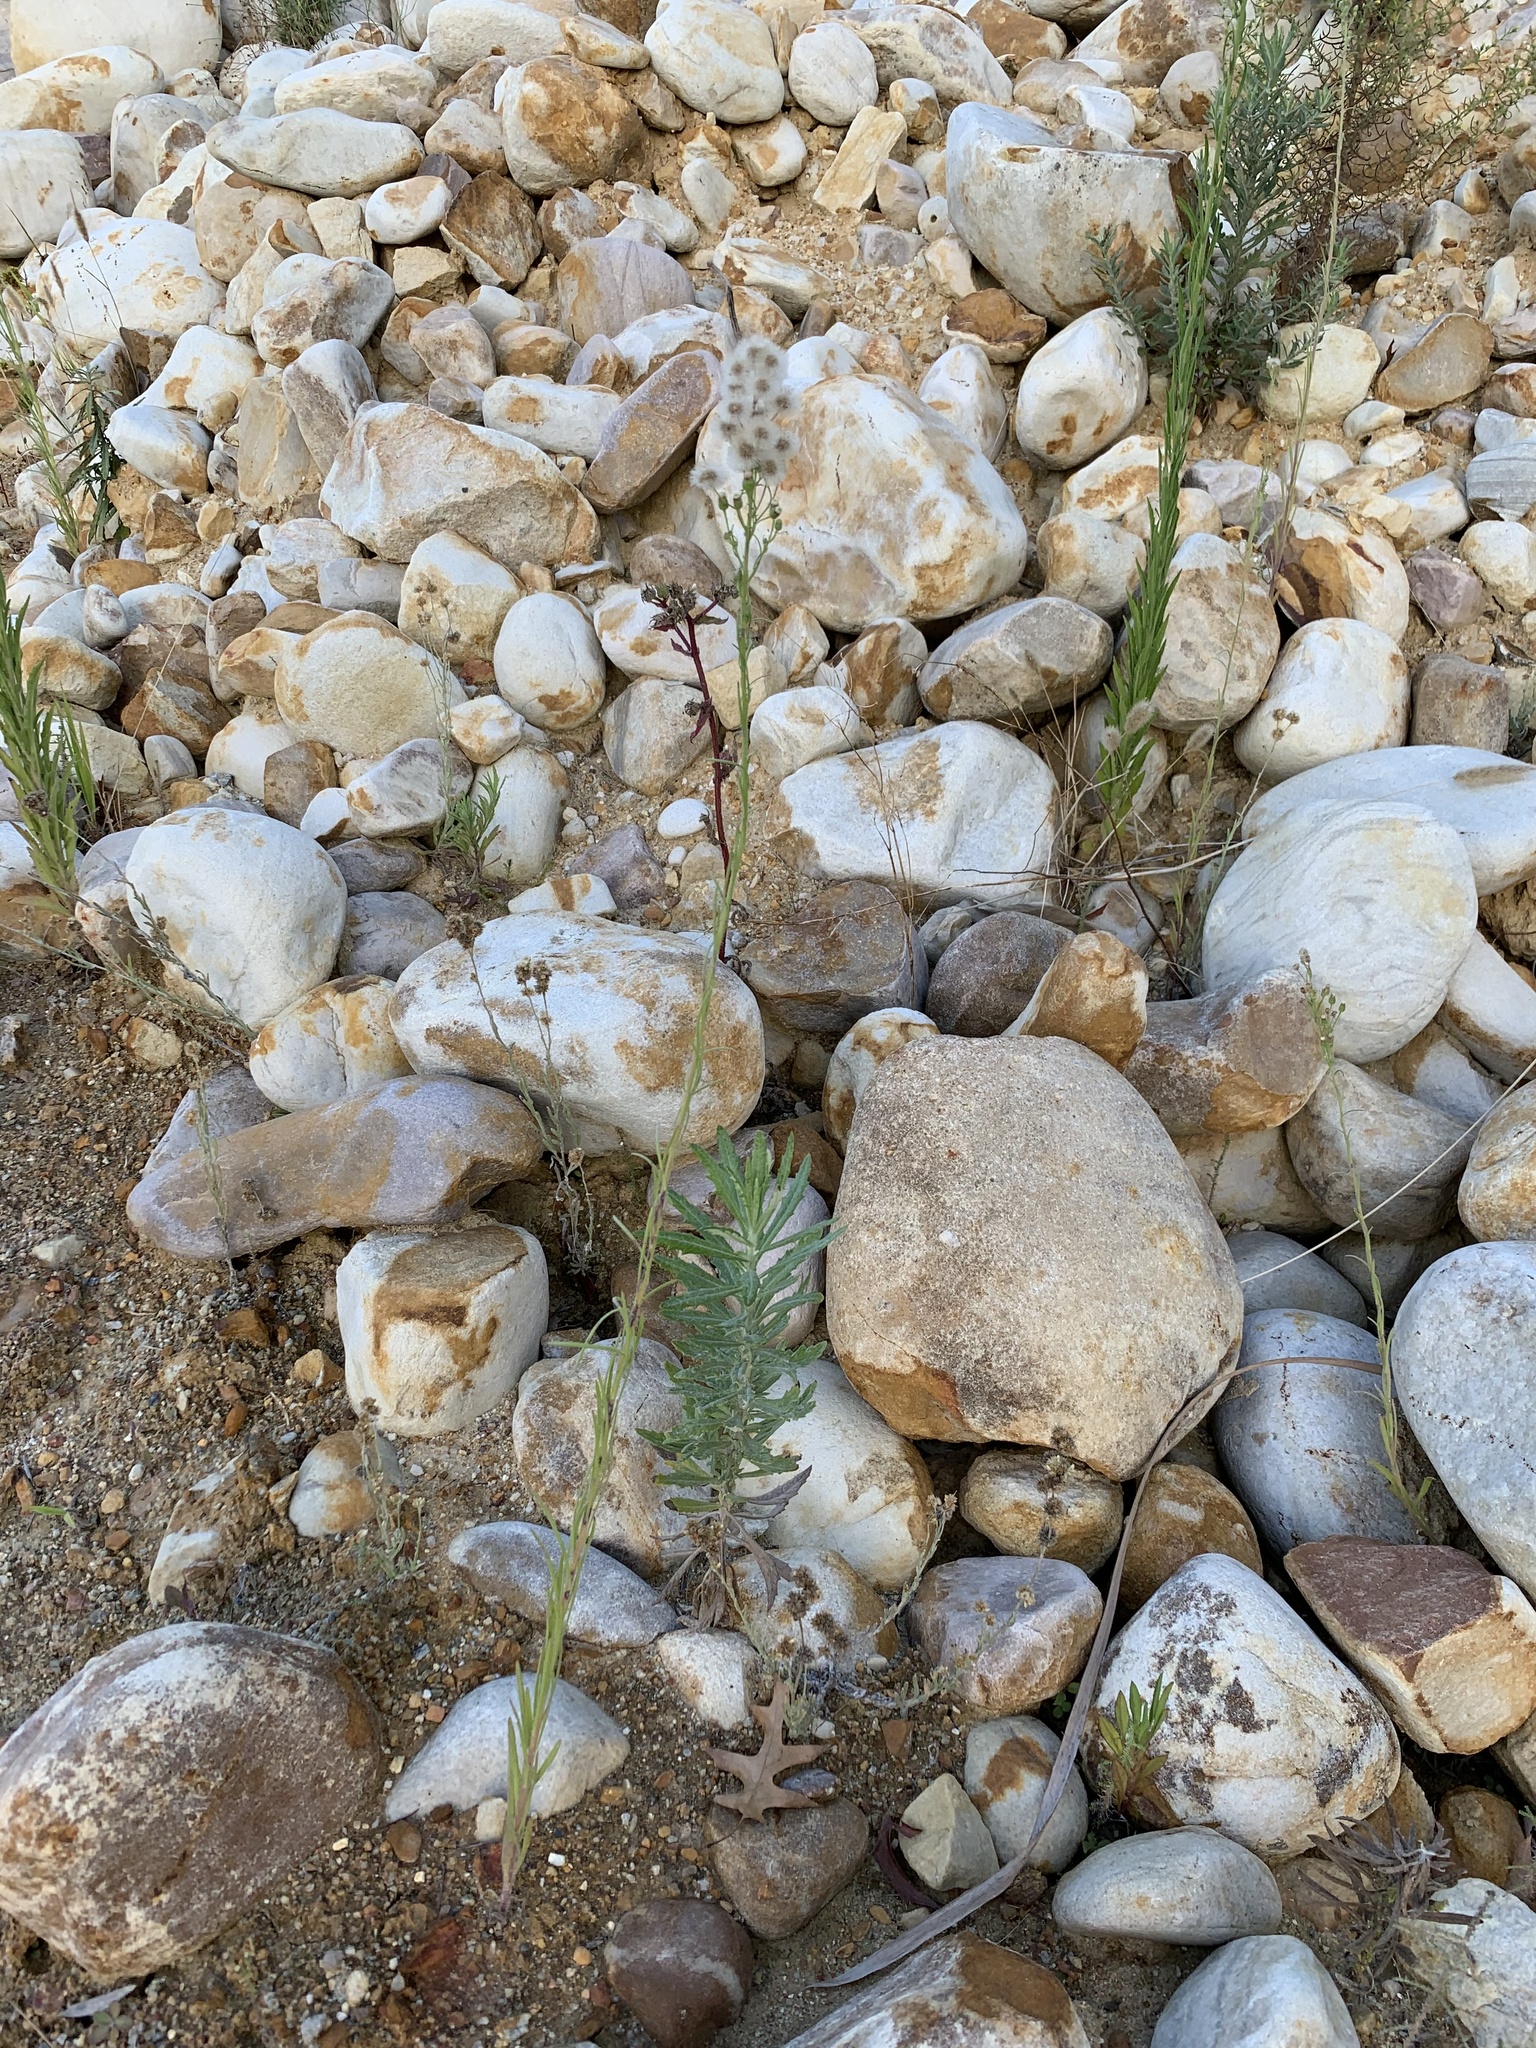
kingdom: Plantae
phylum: Tracheophyta
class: Magnoliopsida
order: Asterales
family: Asteraceae
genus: Erigeron
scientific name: Erigeron bonariensis
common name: Argentine fleabane
